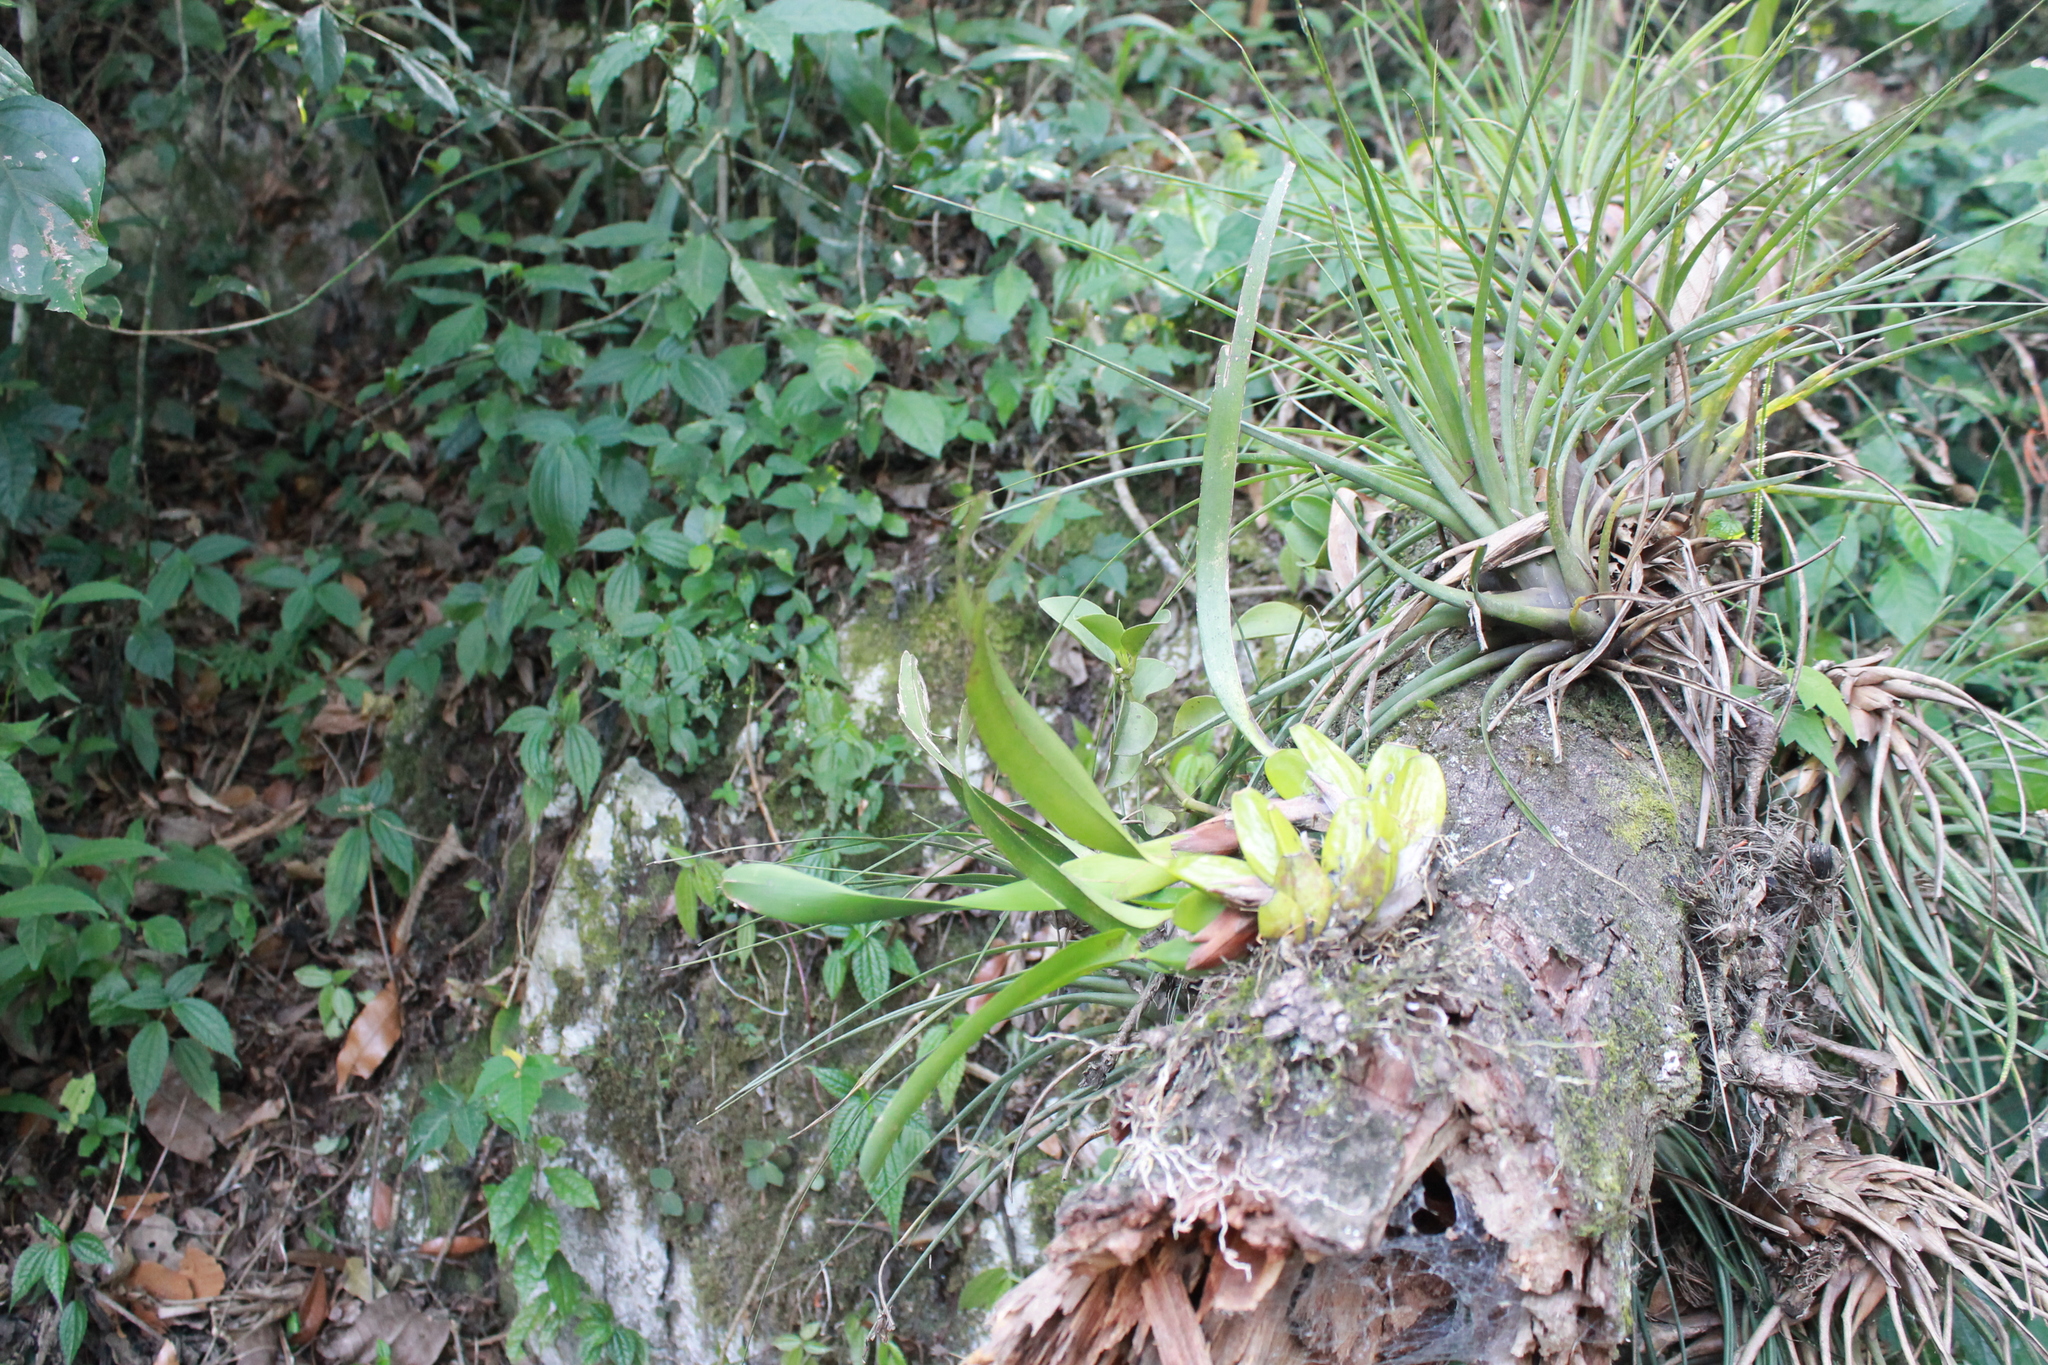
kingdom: Plantae
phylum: Tracheophyta
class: Liliopsida
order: Asparagales
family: Orchidaceae
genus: Maxillaria
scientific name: Maxillaria densa
